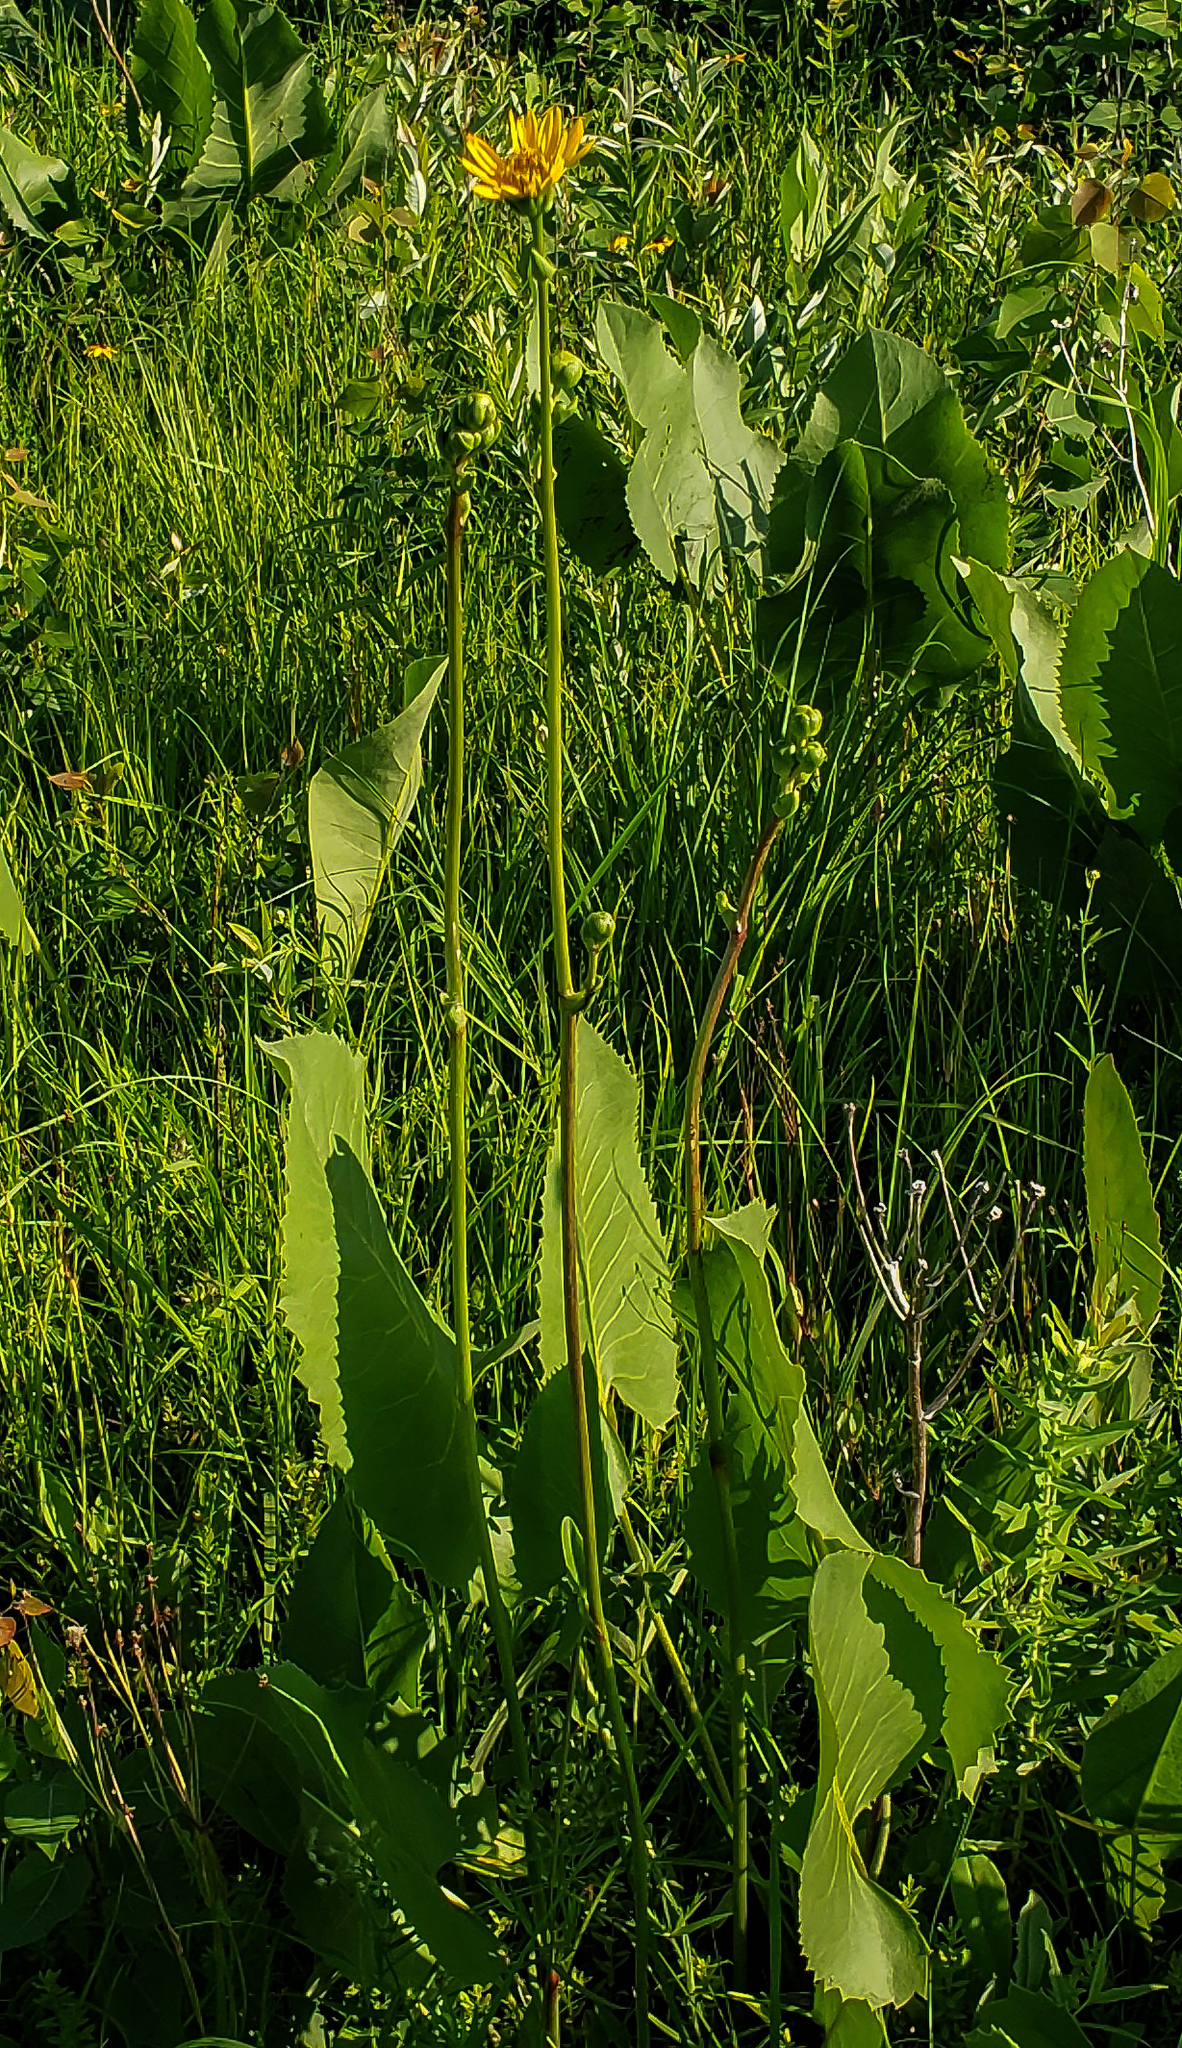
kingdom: Plantae
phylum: Tracheophyta
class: Magnoliopsida
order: Asterales
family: Asteraceae
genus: Silphium
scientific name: Silphium terebinthinaceum
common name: Basal-leaf rosinweed
